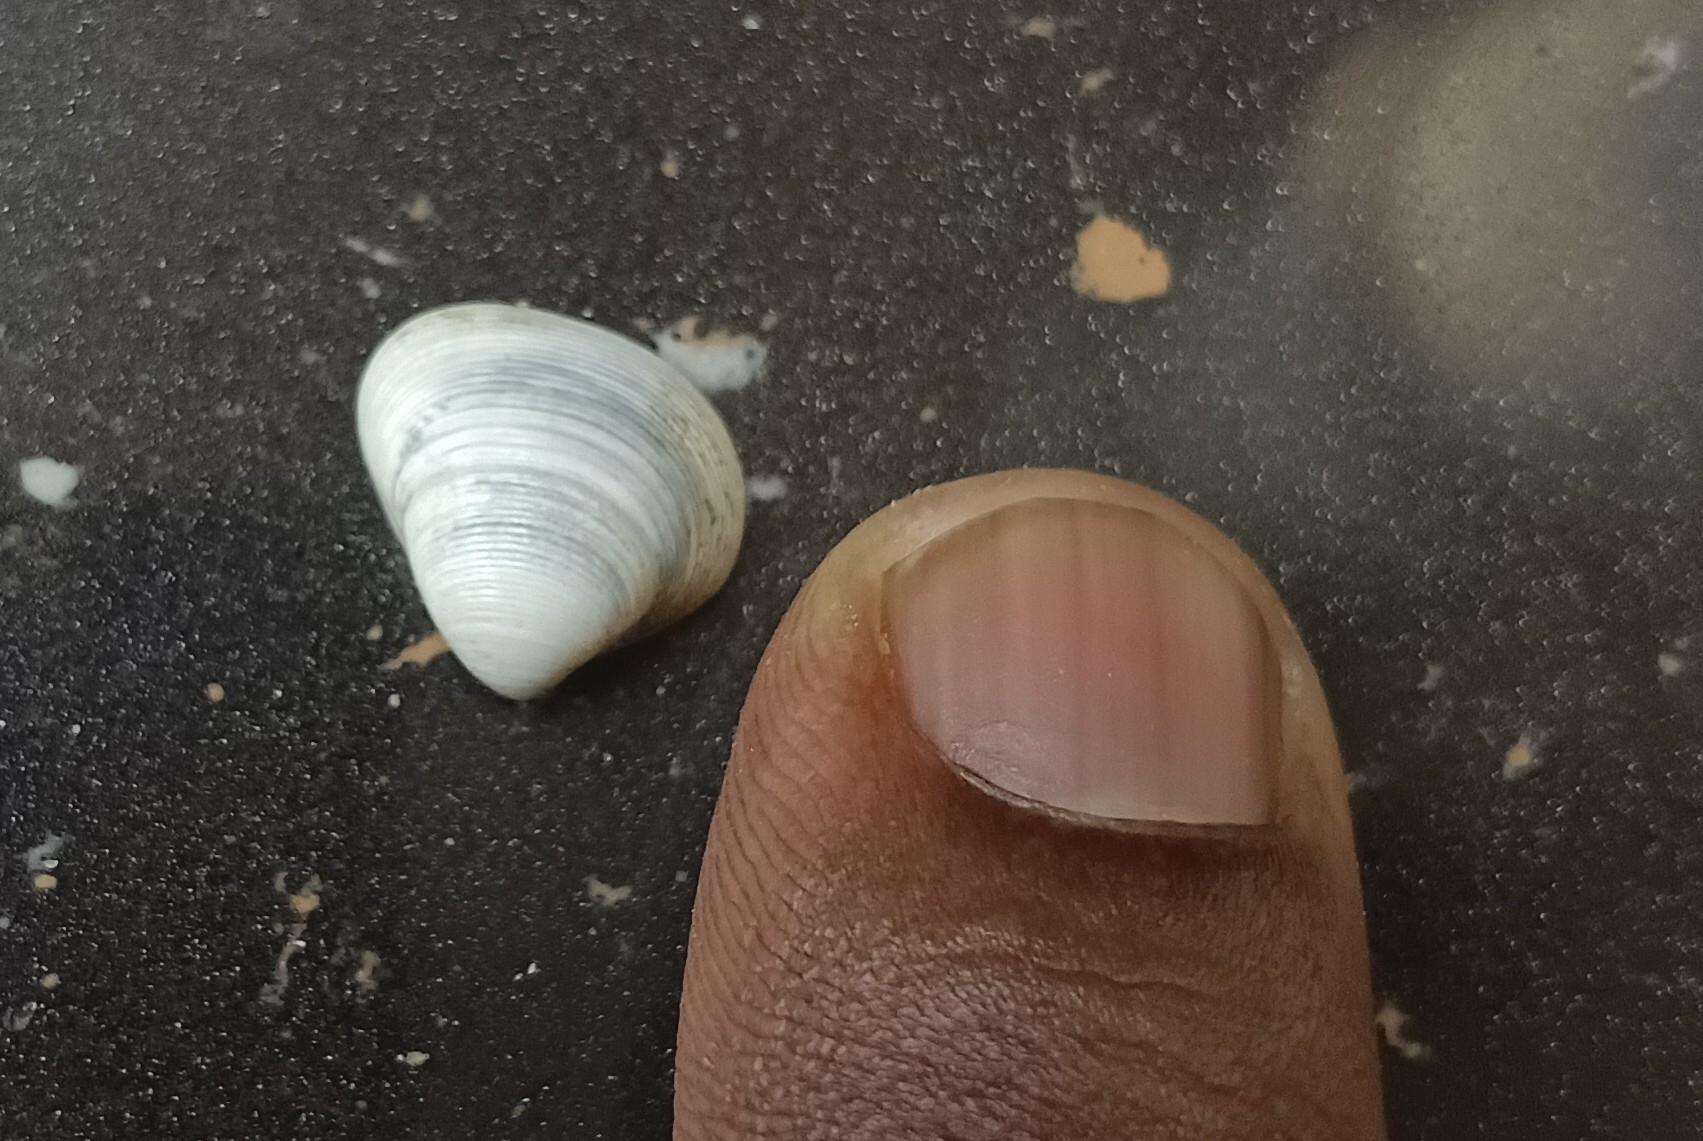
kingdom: Animalia
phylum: Mollusca
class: Bivalvia
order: Venerida
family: Cyrenidae
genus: Villorita
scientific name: Villorita cyprinoides
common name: Black clam
